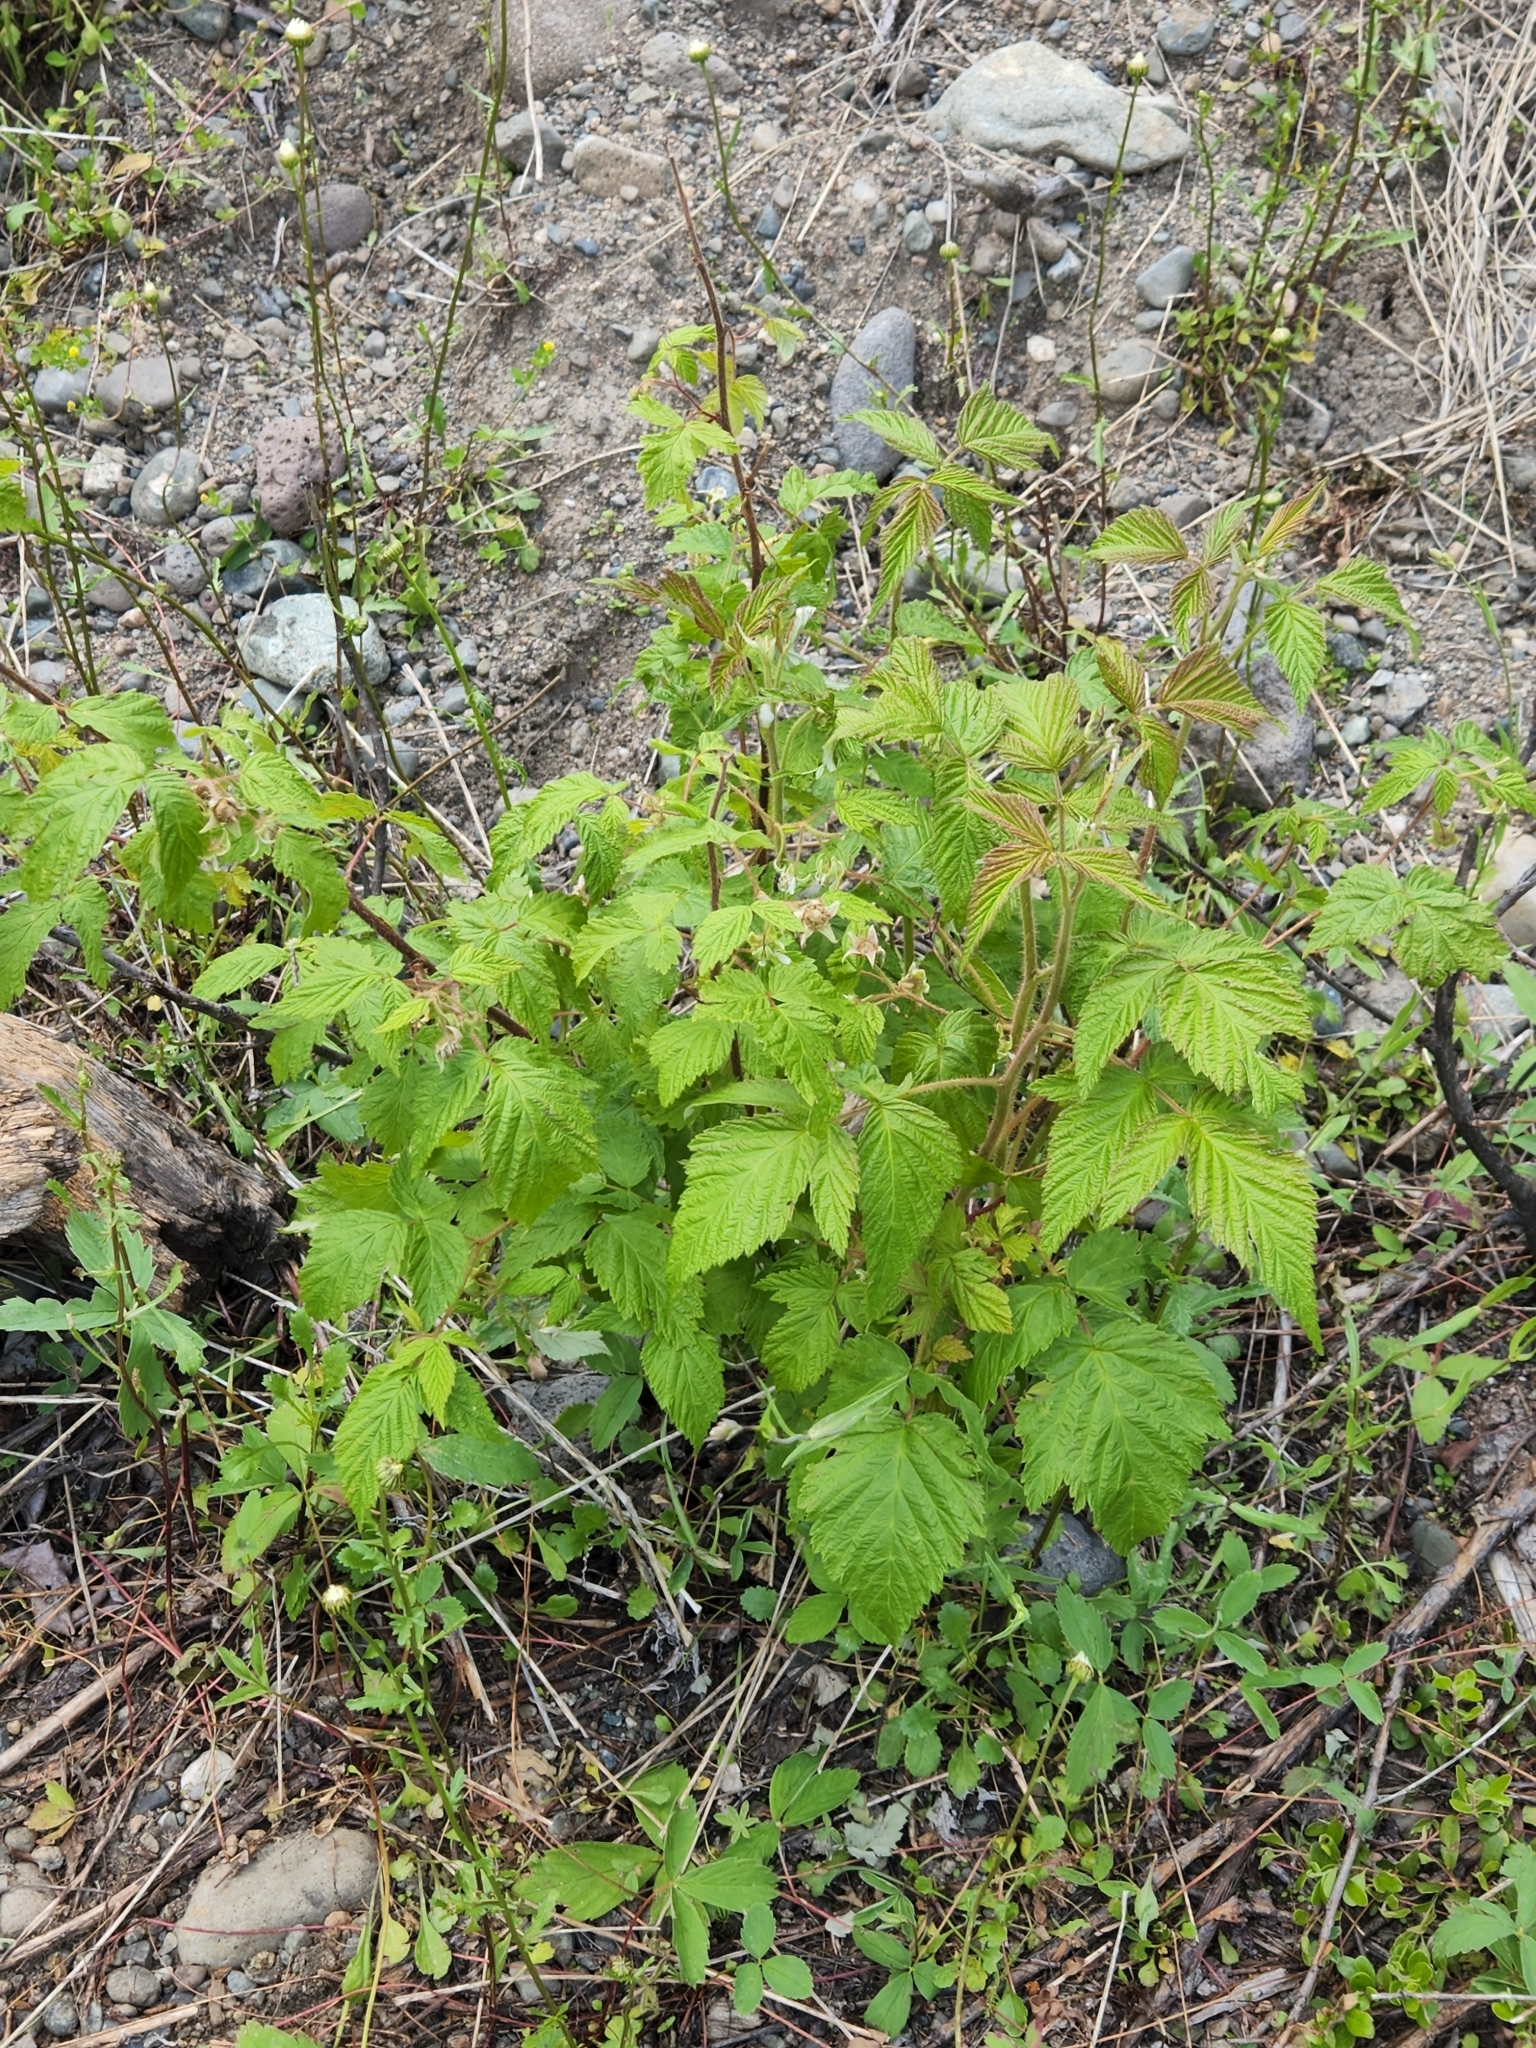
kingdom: Plantae
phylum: Tracheophyta
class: Magnoliopsida
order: Rosales
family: Rosaceae
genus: Rubus
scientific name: Rubus idaeus
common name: Raspberry
